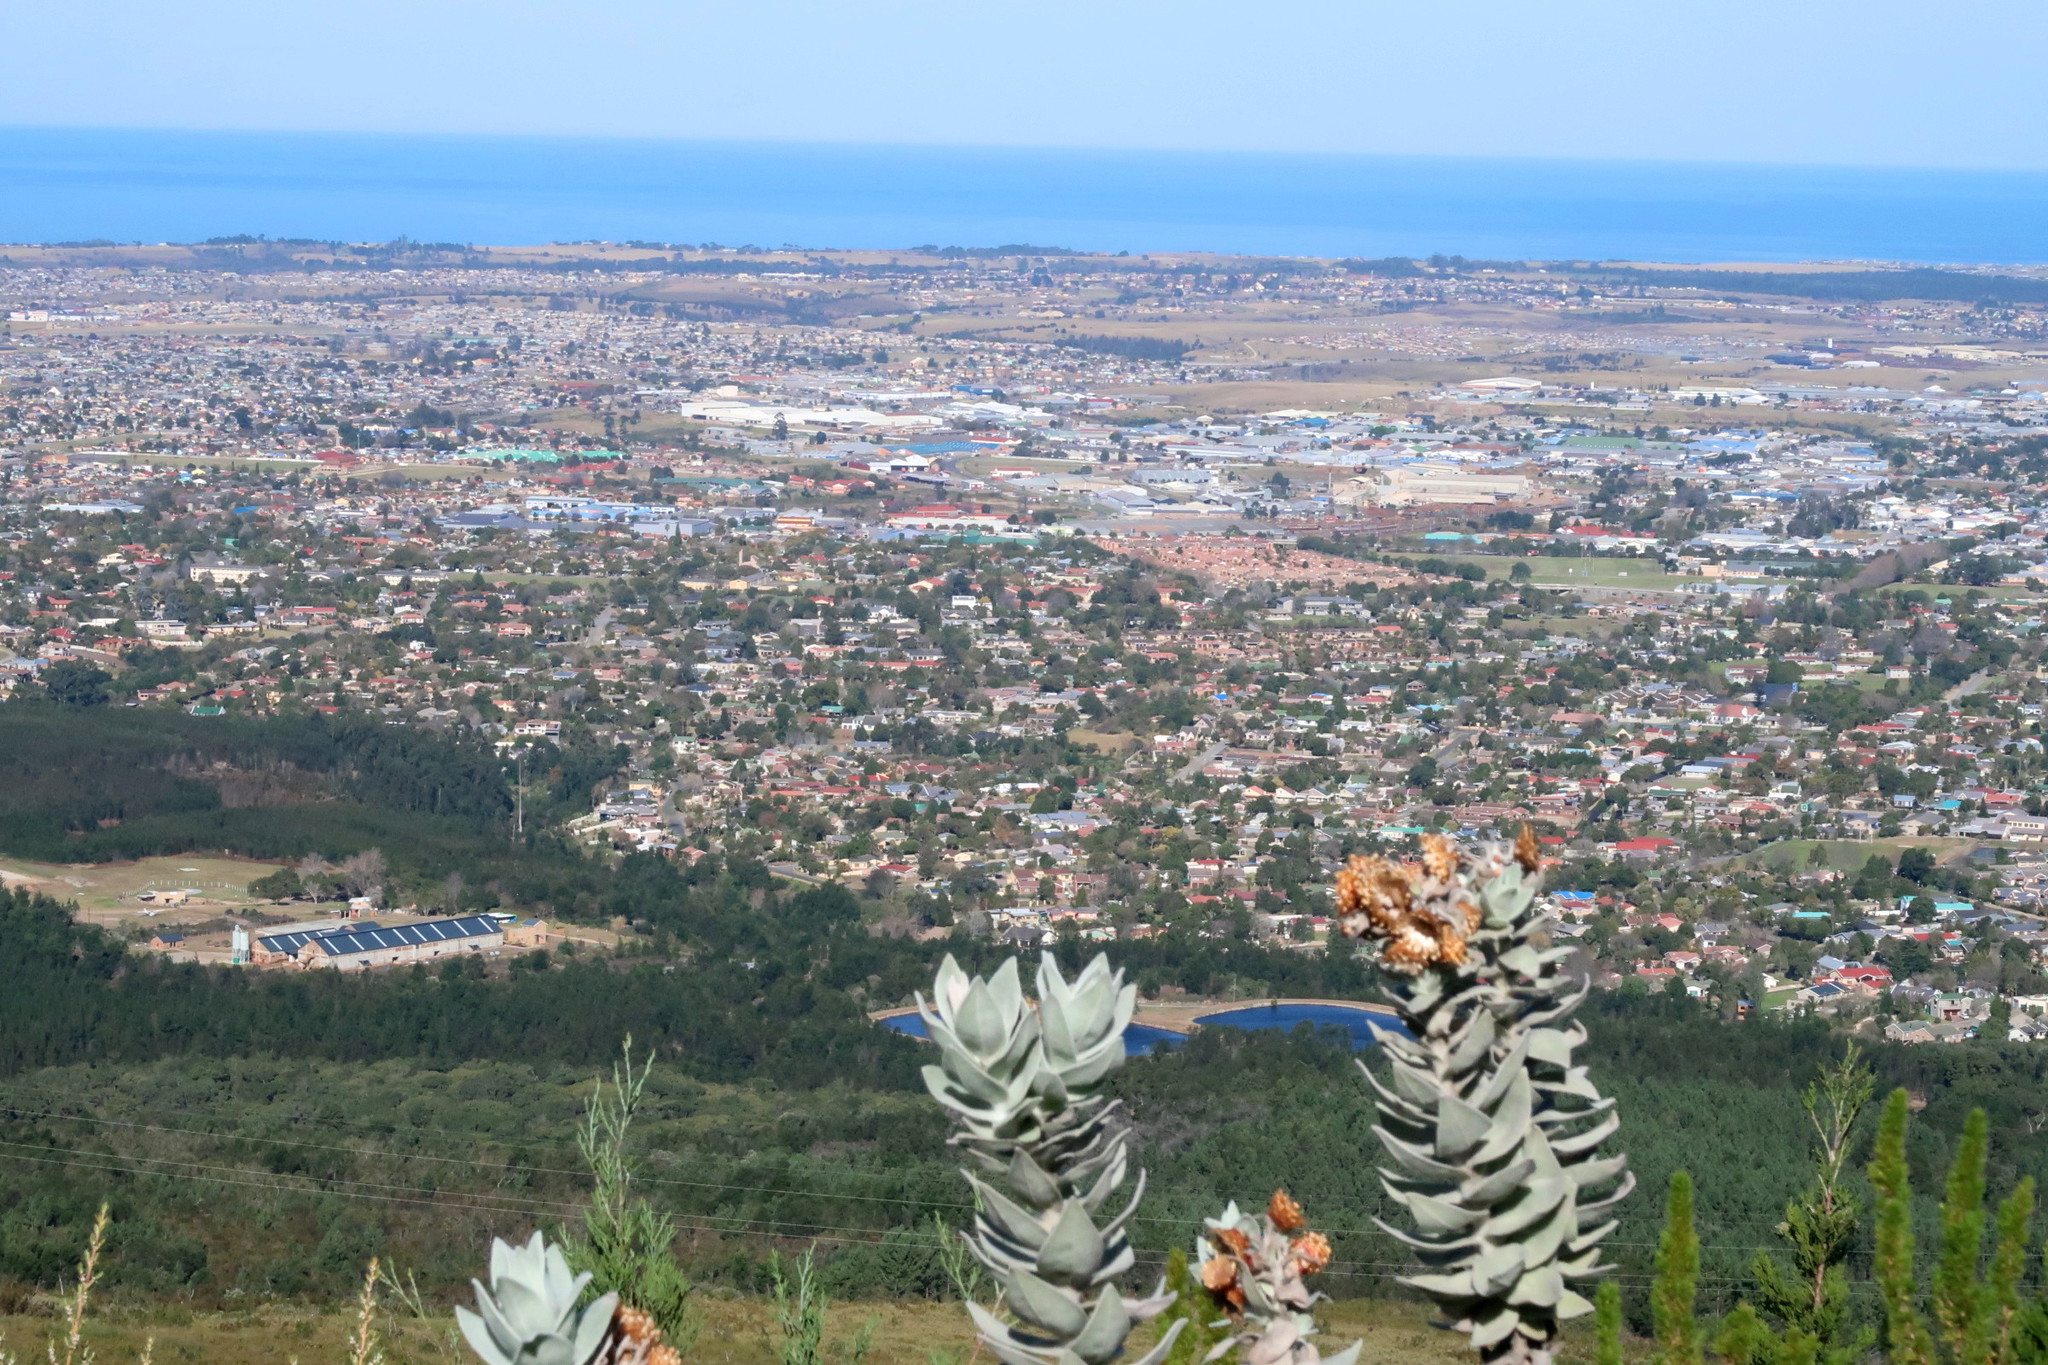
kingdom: Plantae
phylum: Tracheophyta
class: Magnoliopsida
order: Asterales
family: Asteraceae
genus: Syncarpha
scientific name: Syncarpha eximia
